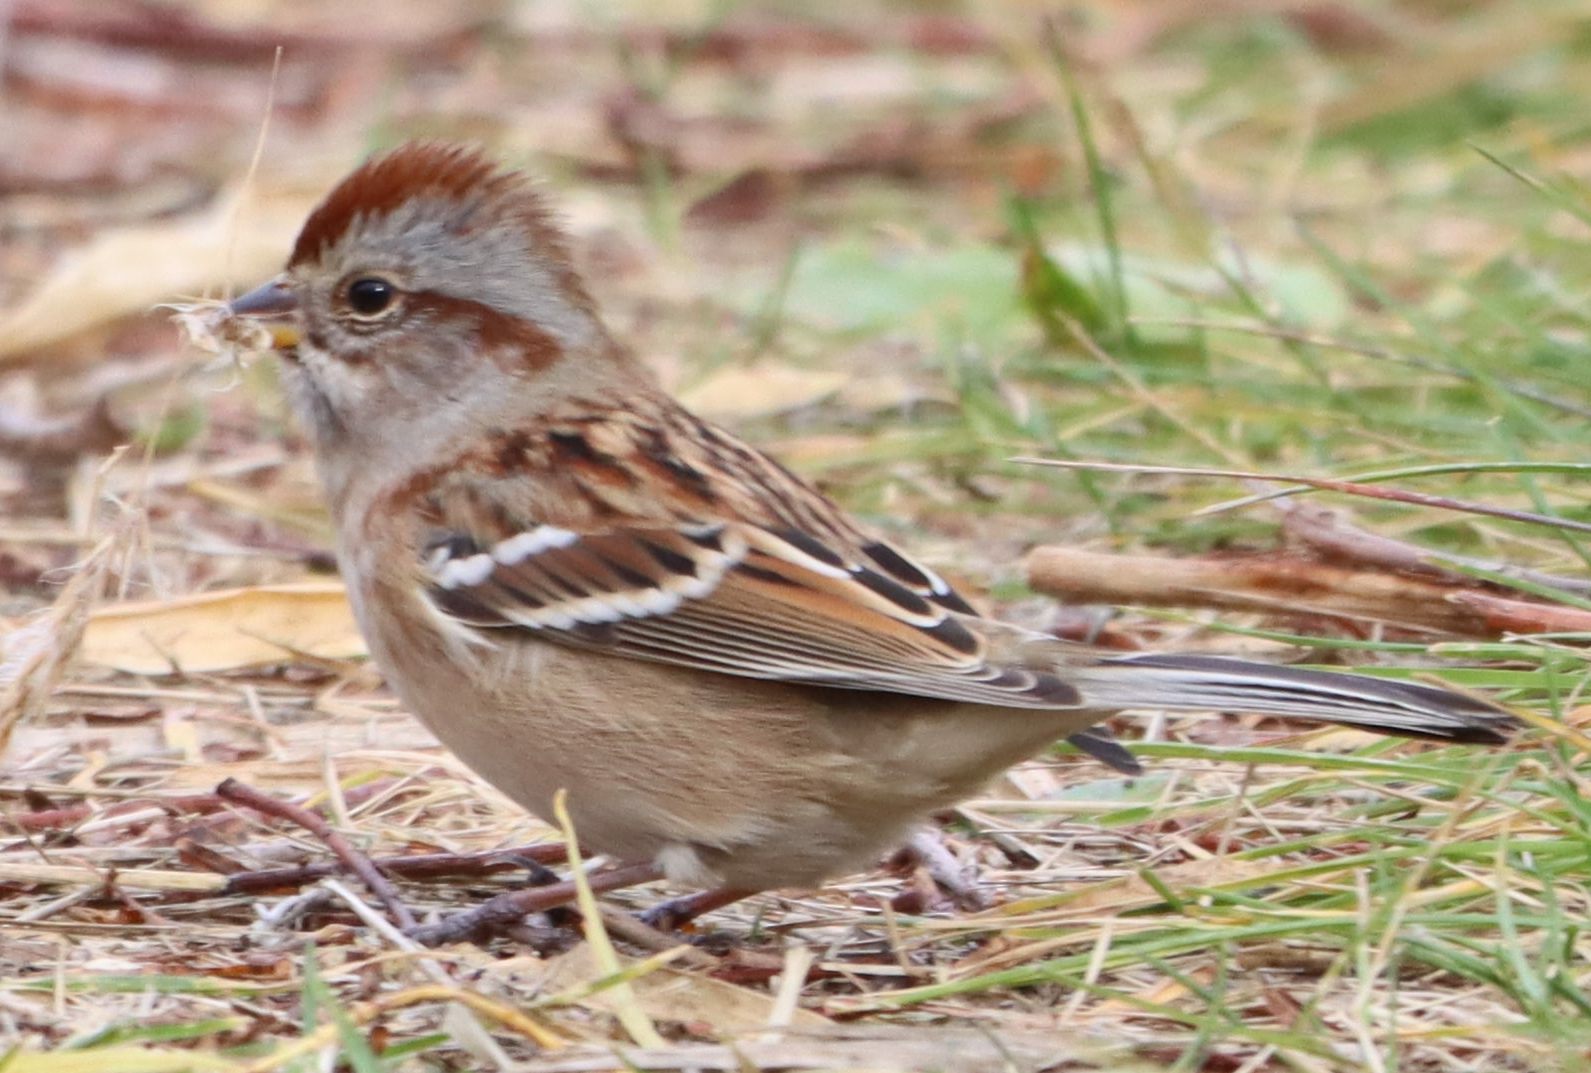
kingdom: Animalia
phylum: Chordata
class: Aves
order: Passeriformes
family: Passerellidae
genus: Spizelloides
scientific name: Spizelloides arborea
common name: American tree sparrow
